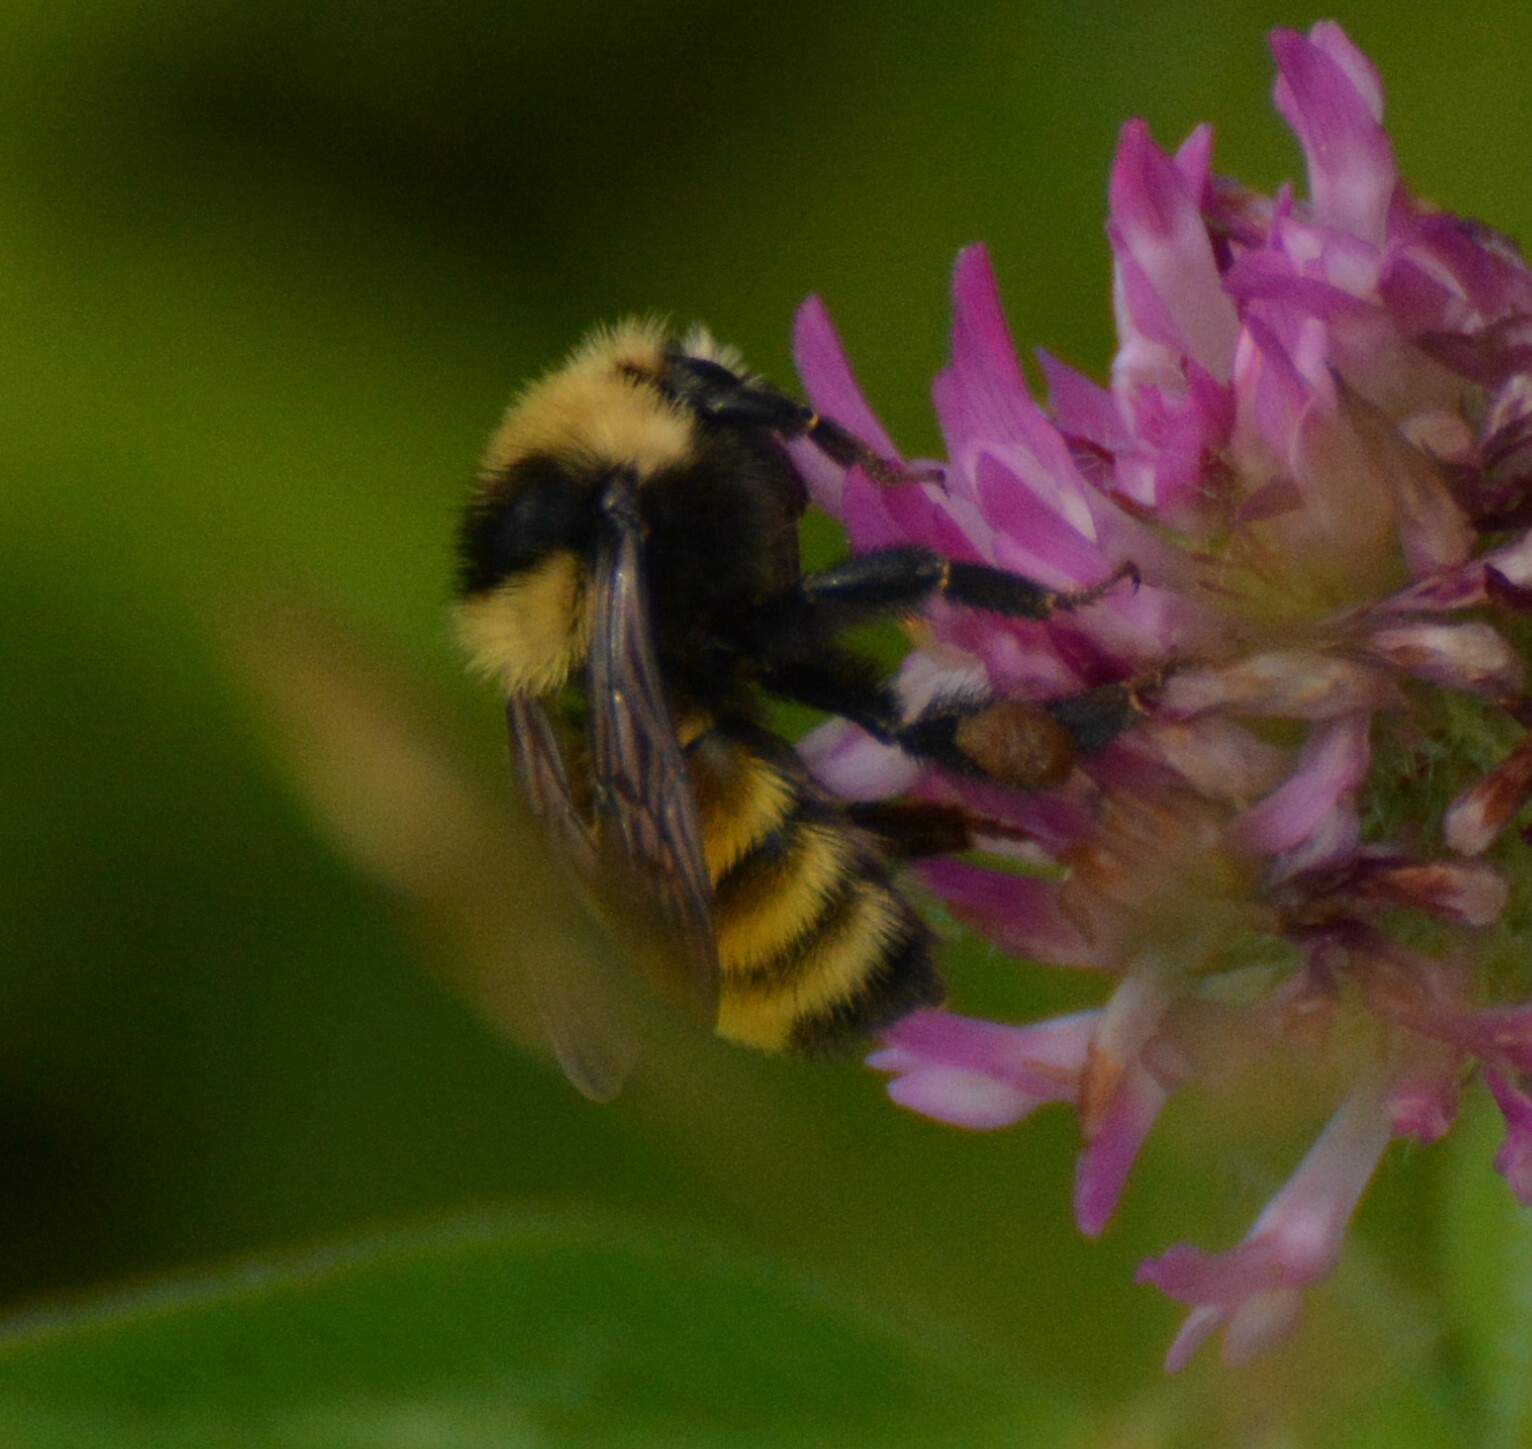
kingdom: Animalia
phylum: Arthropoda
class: Insecta
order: Hymenoptera
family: Apidae
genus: Bombus
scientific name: Bombus borealis
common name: Northern amber bumble bee
